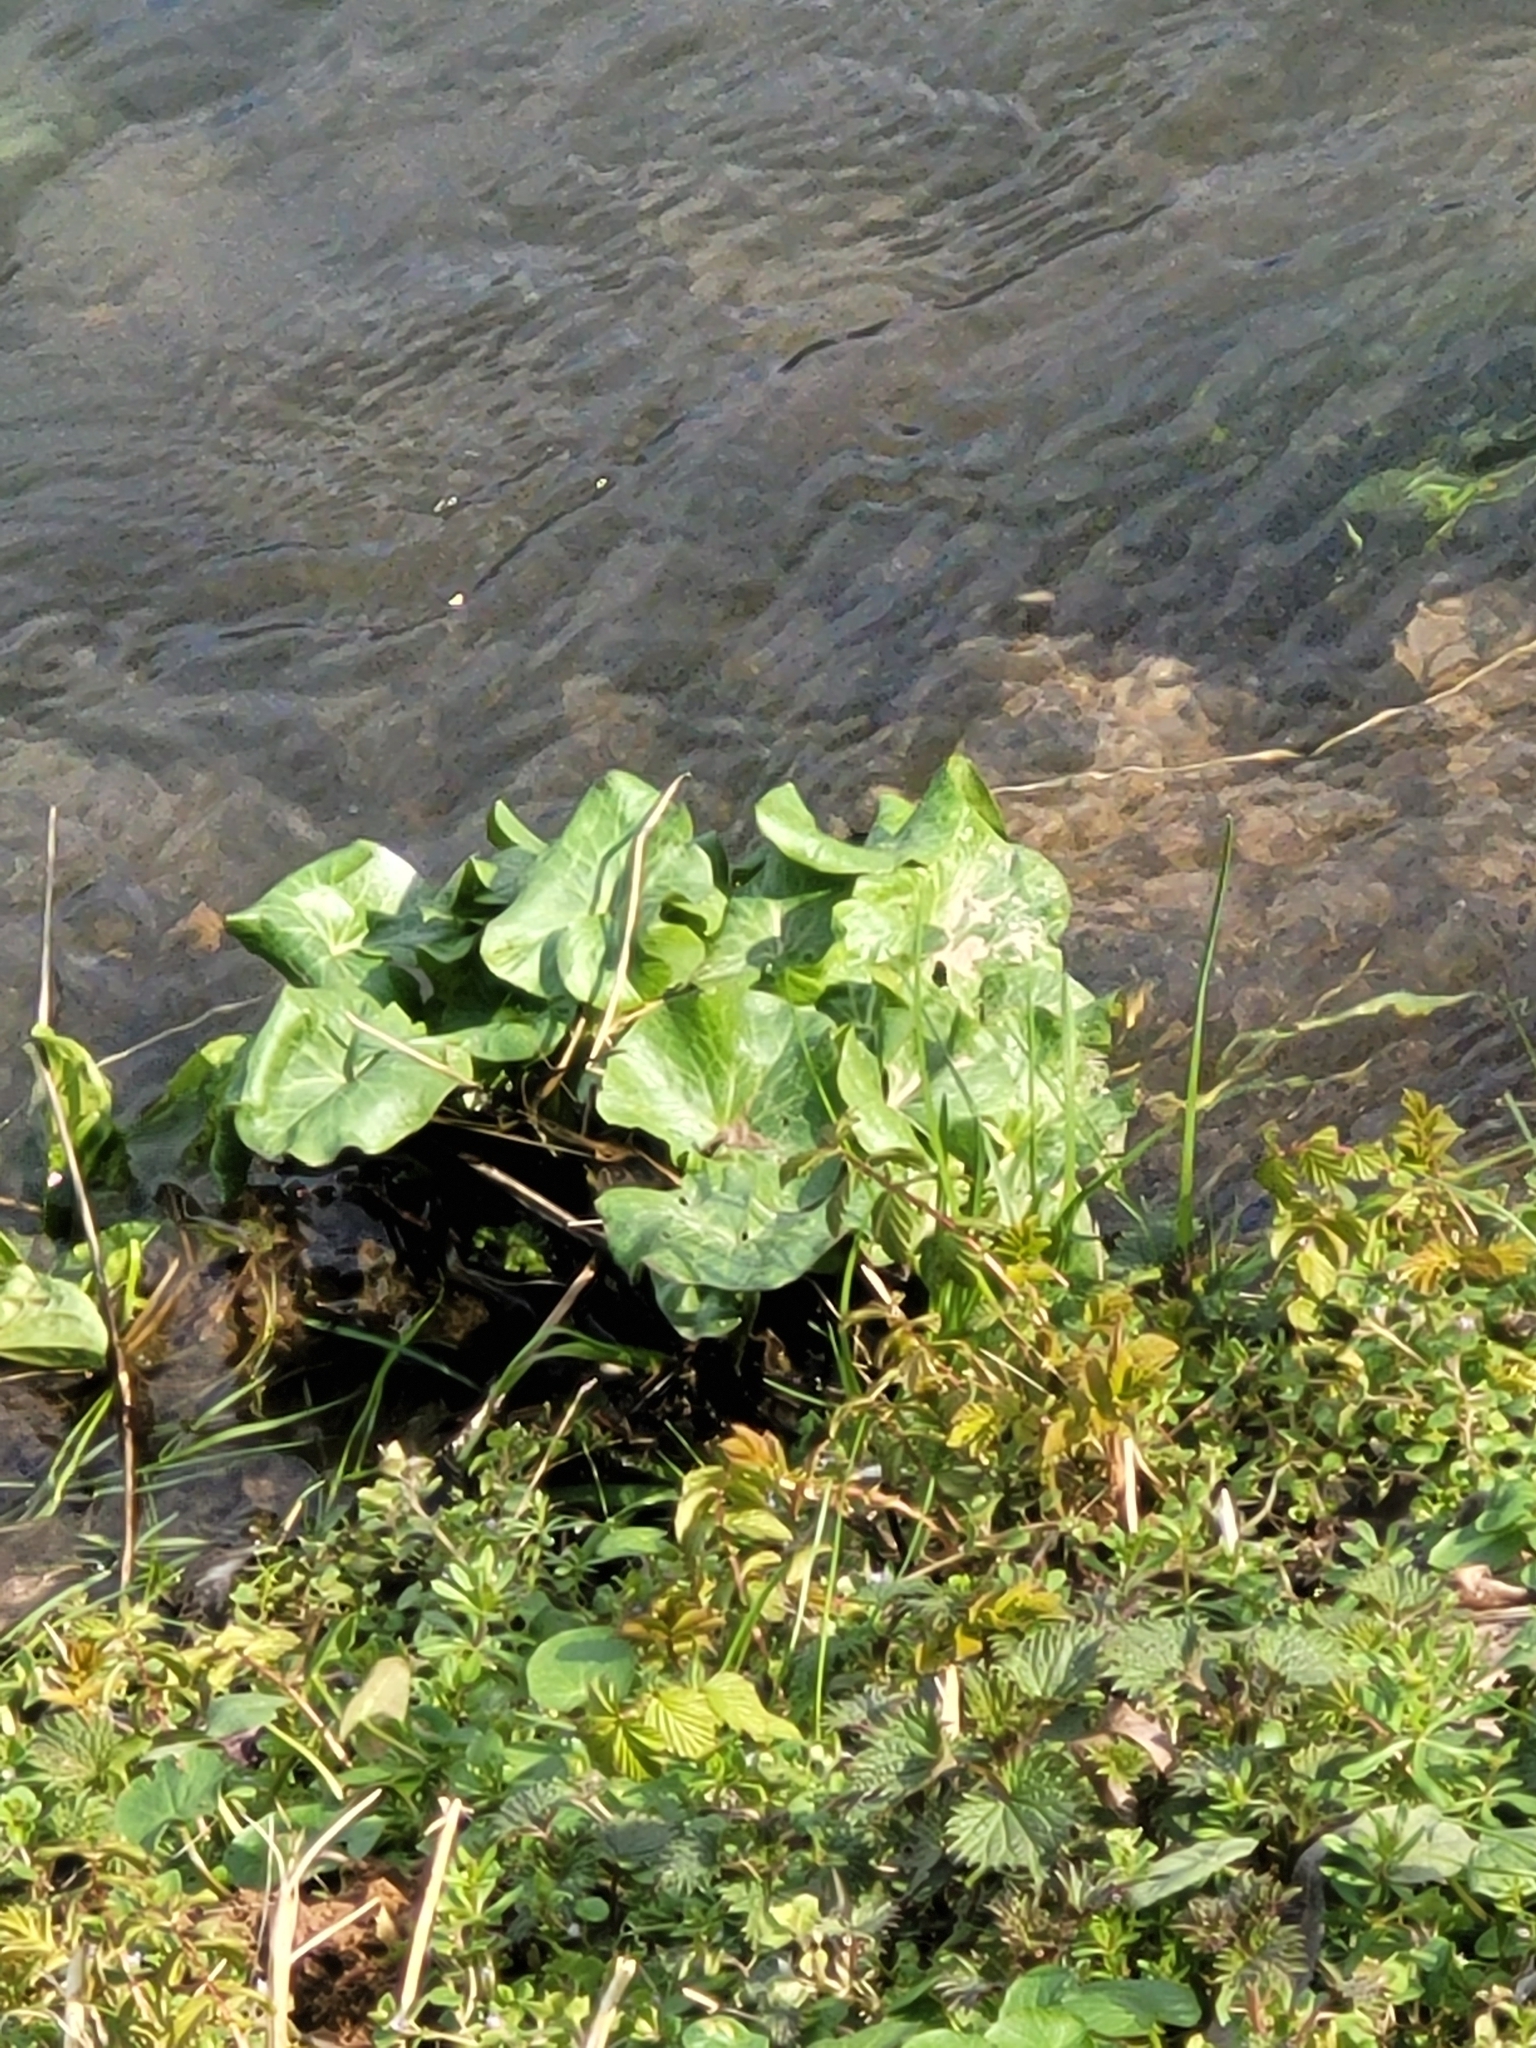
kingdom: Plantae
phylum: Tracheophyta
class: Magnoliopsida
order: Ranunculales
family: Ranunculaceae
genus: Caltha
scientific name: Caltha palustris
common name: Marsh marigold
